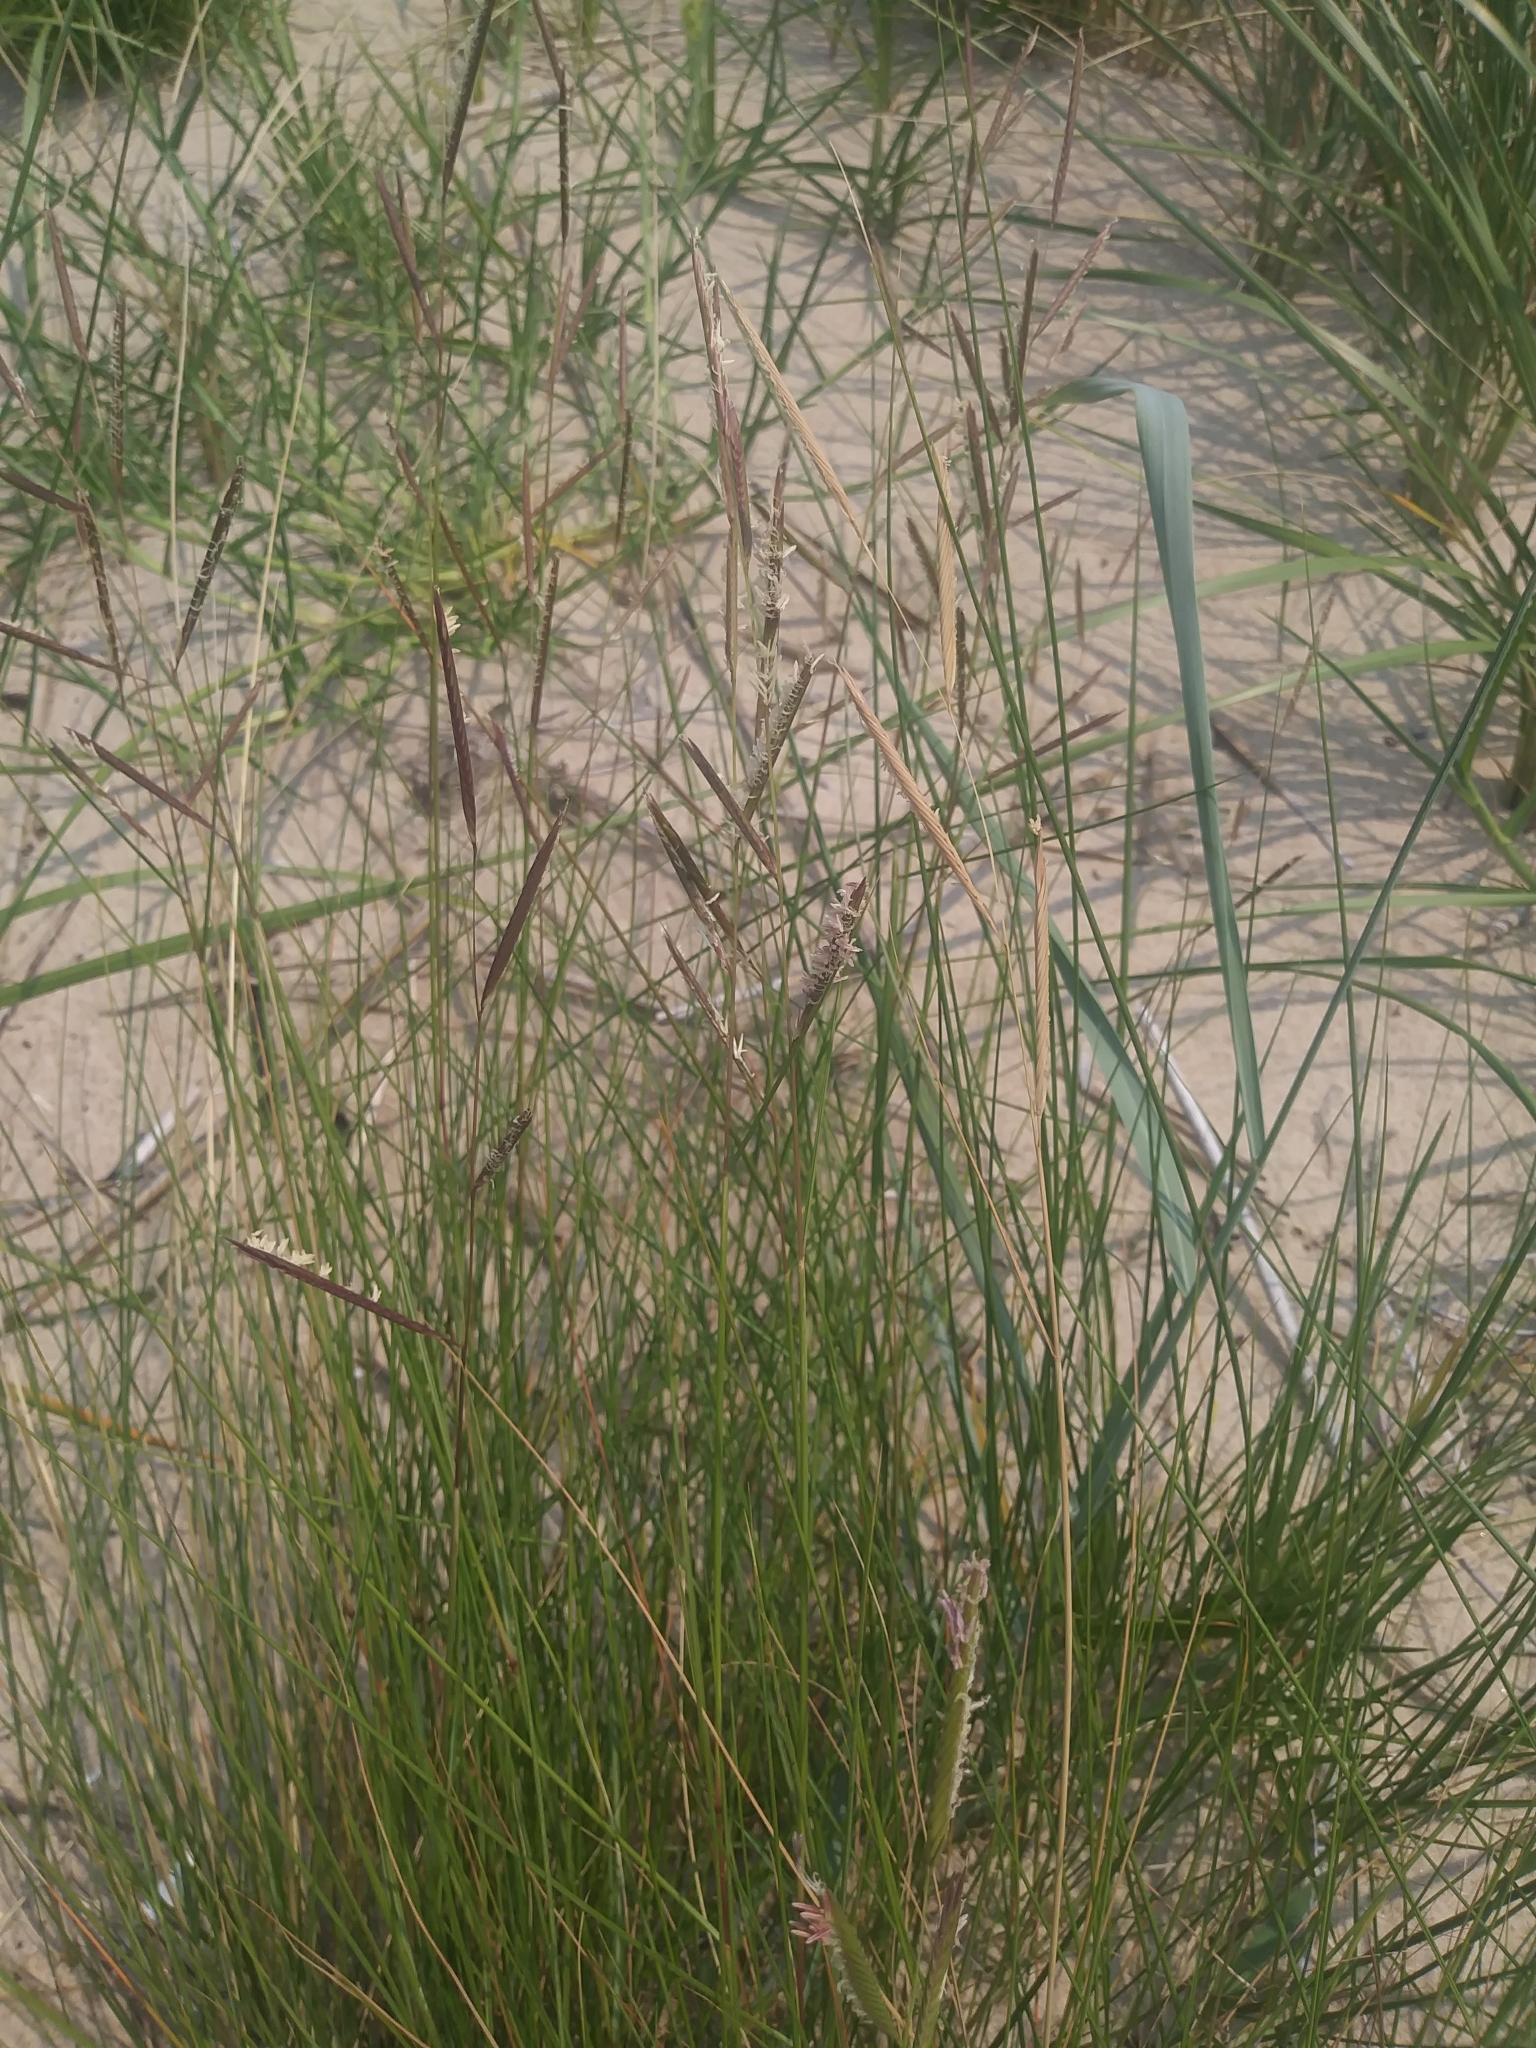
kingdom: Plantae
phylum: Tracheophyta
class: Liliopsida
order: Poales
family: Poaceae
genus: Calamagrostis
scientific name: Calamagrostis breviligulata
